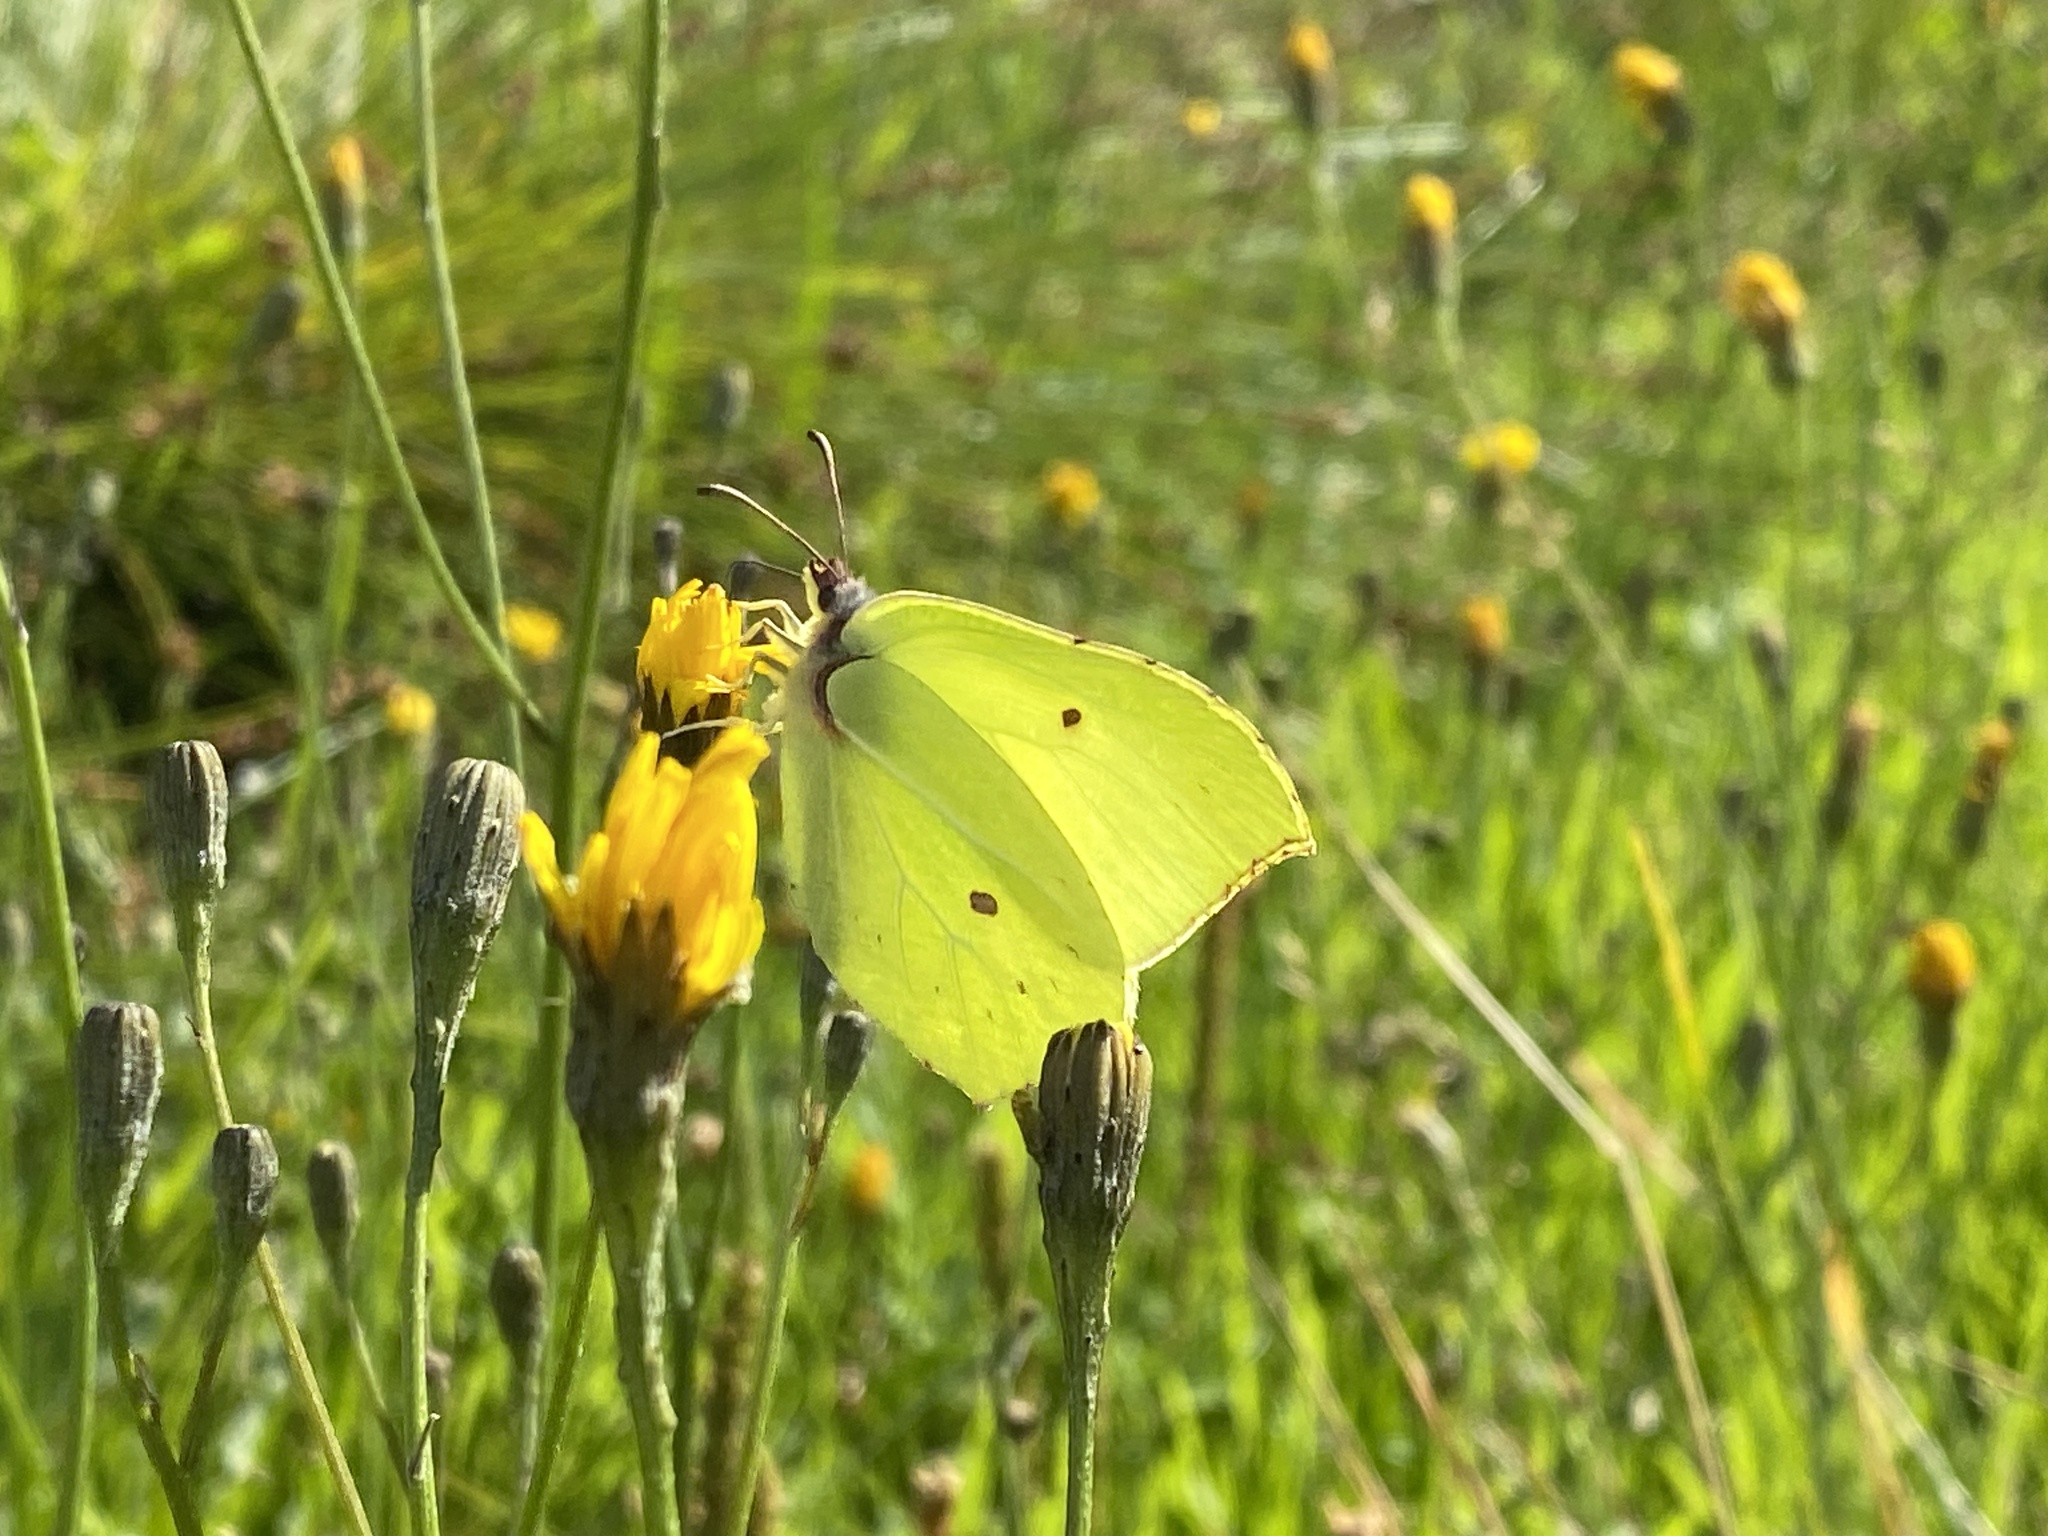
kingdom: Animalia
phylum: Arthropoda
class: Insecta
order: Lepidoptera
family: Pieridae
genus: Gonepteryx
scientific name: Gonepteryx rhamni
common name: Brimstone
